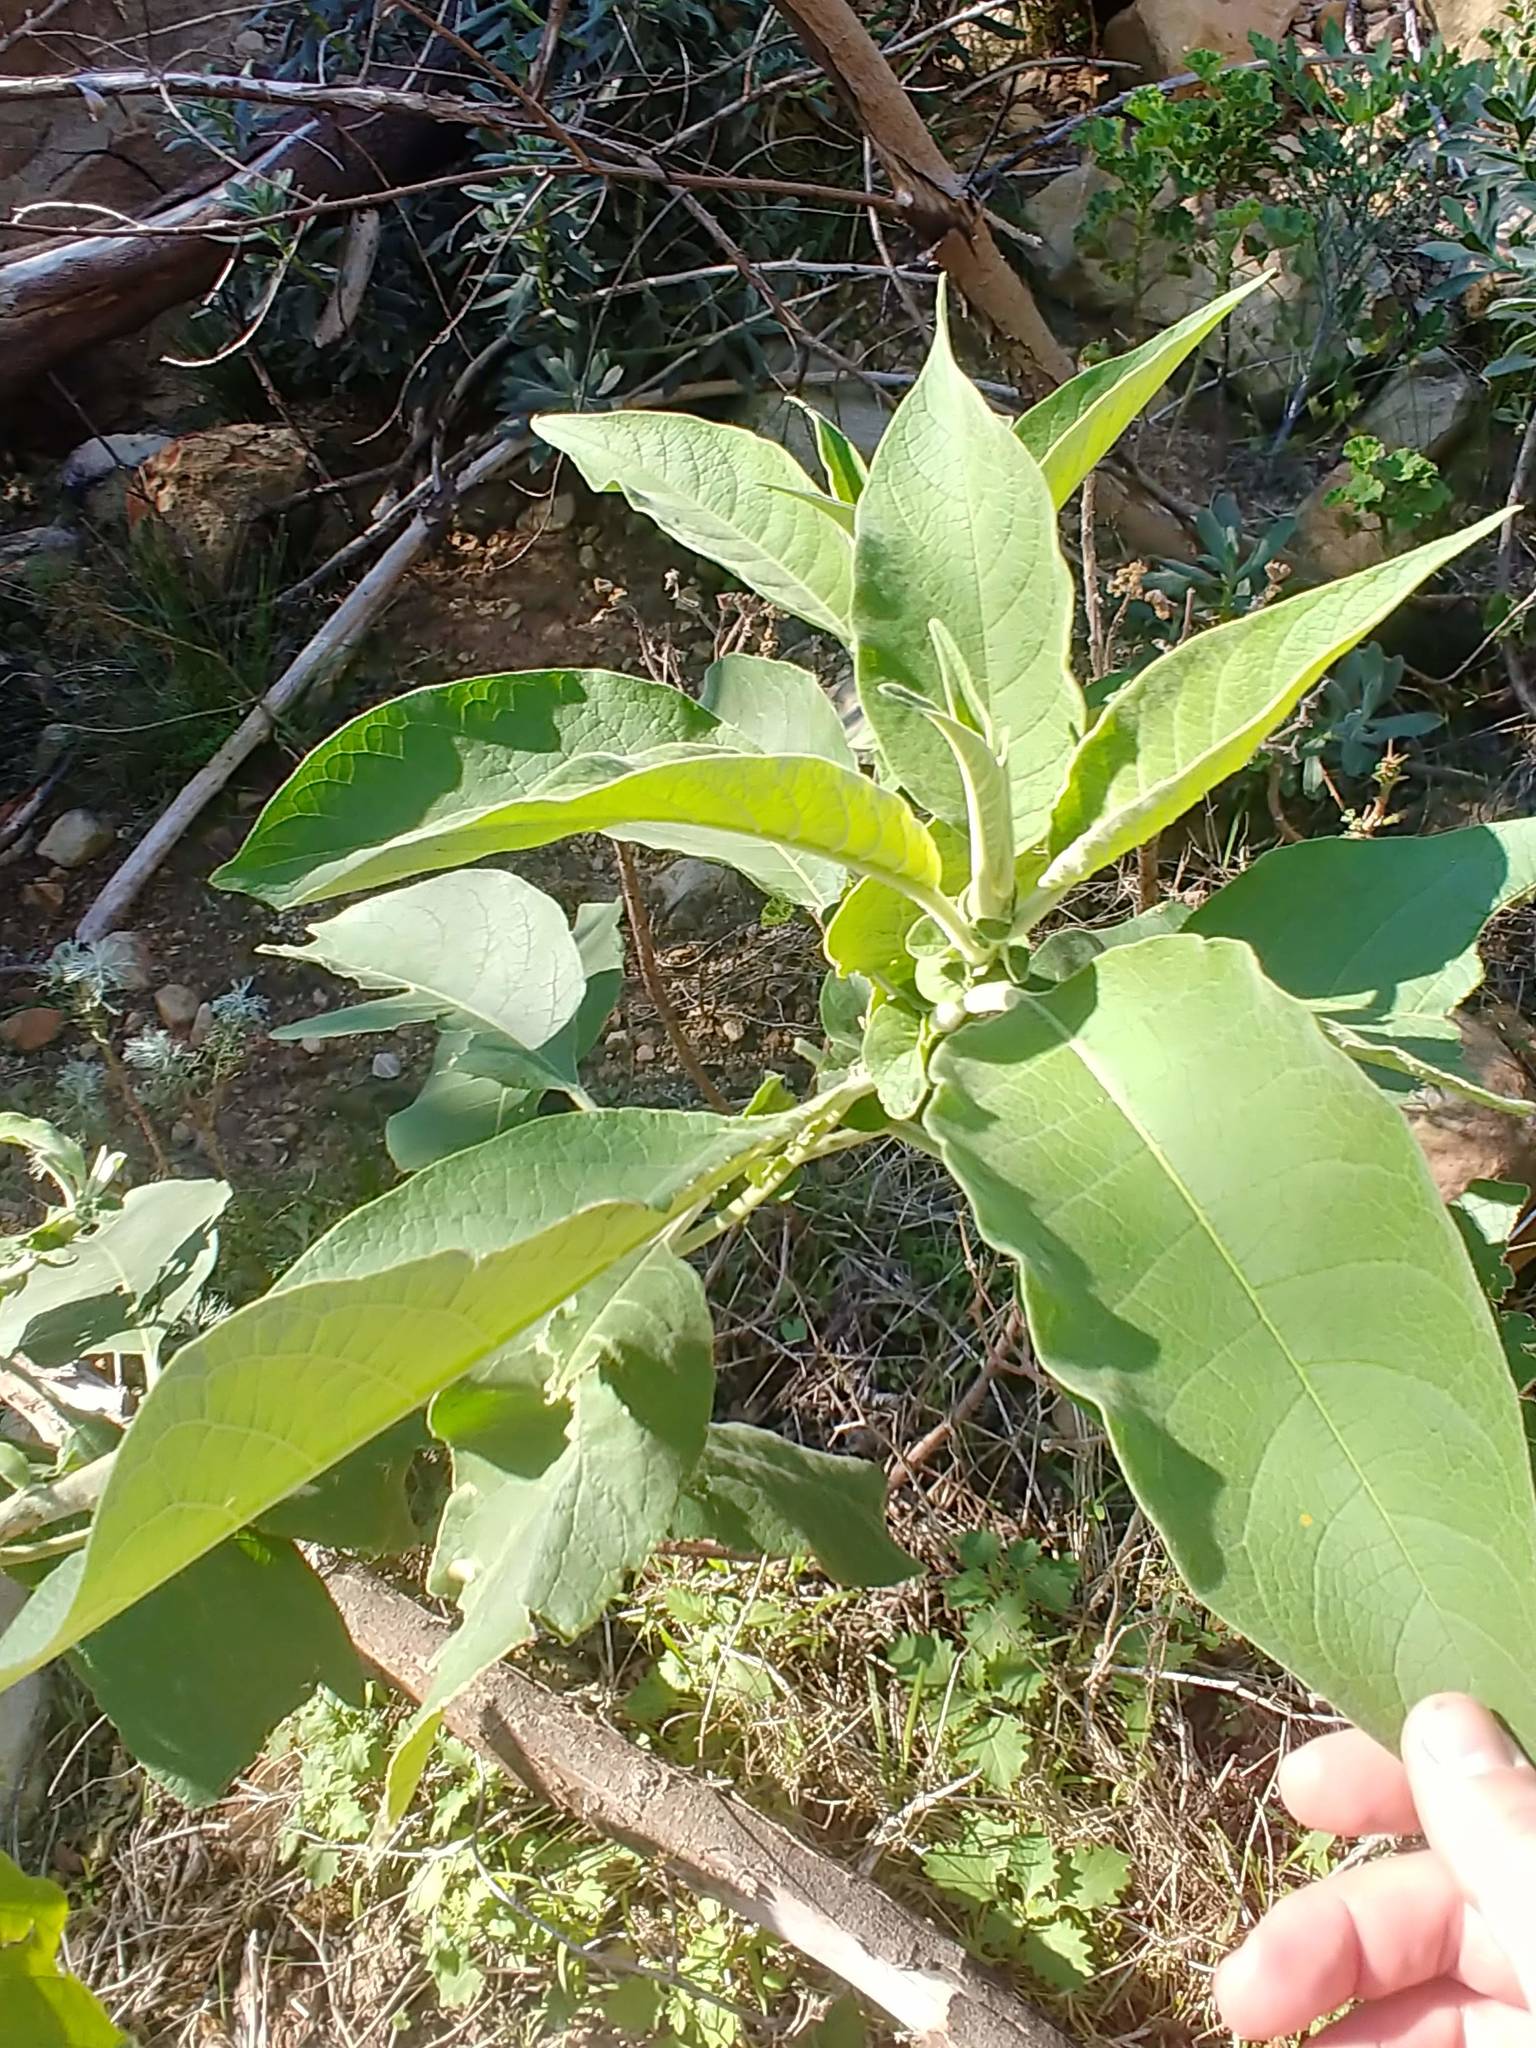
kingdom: Plantae
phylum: Tracheophyta
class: Magnoliopsida
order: Solanales
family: Solanaceae
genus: Solanum
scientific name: Solanum mauritianum
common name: Earleaf nightshade
